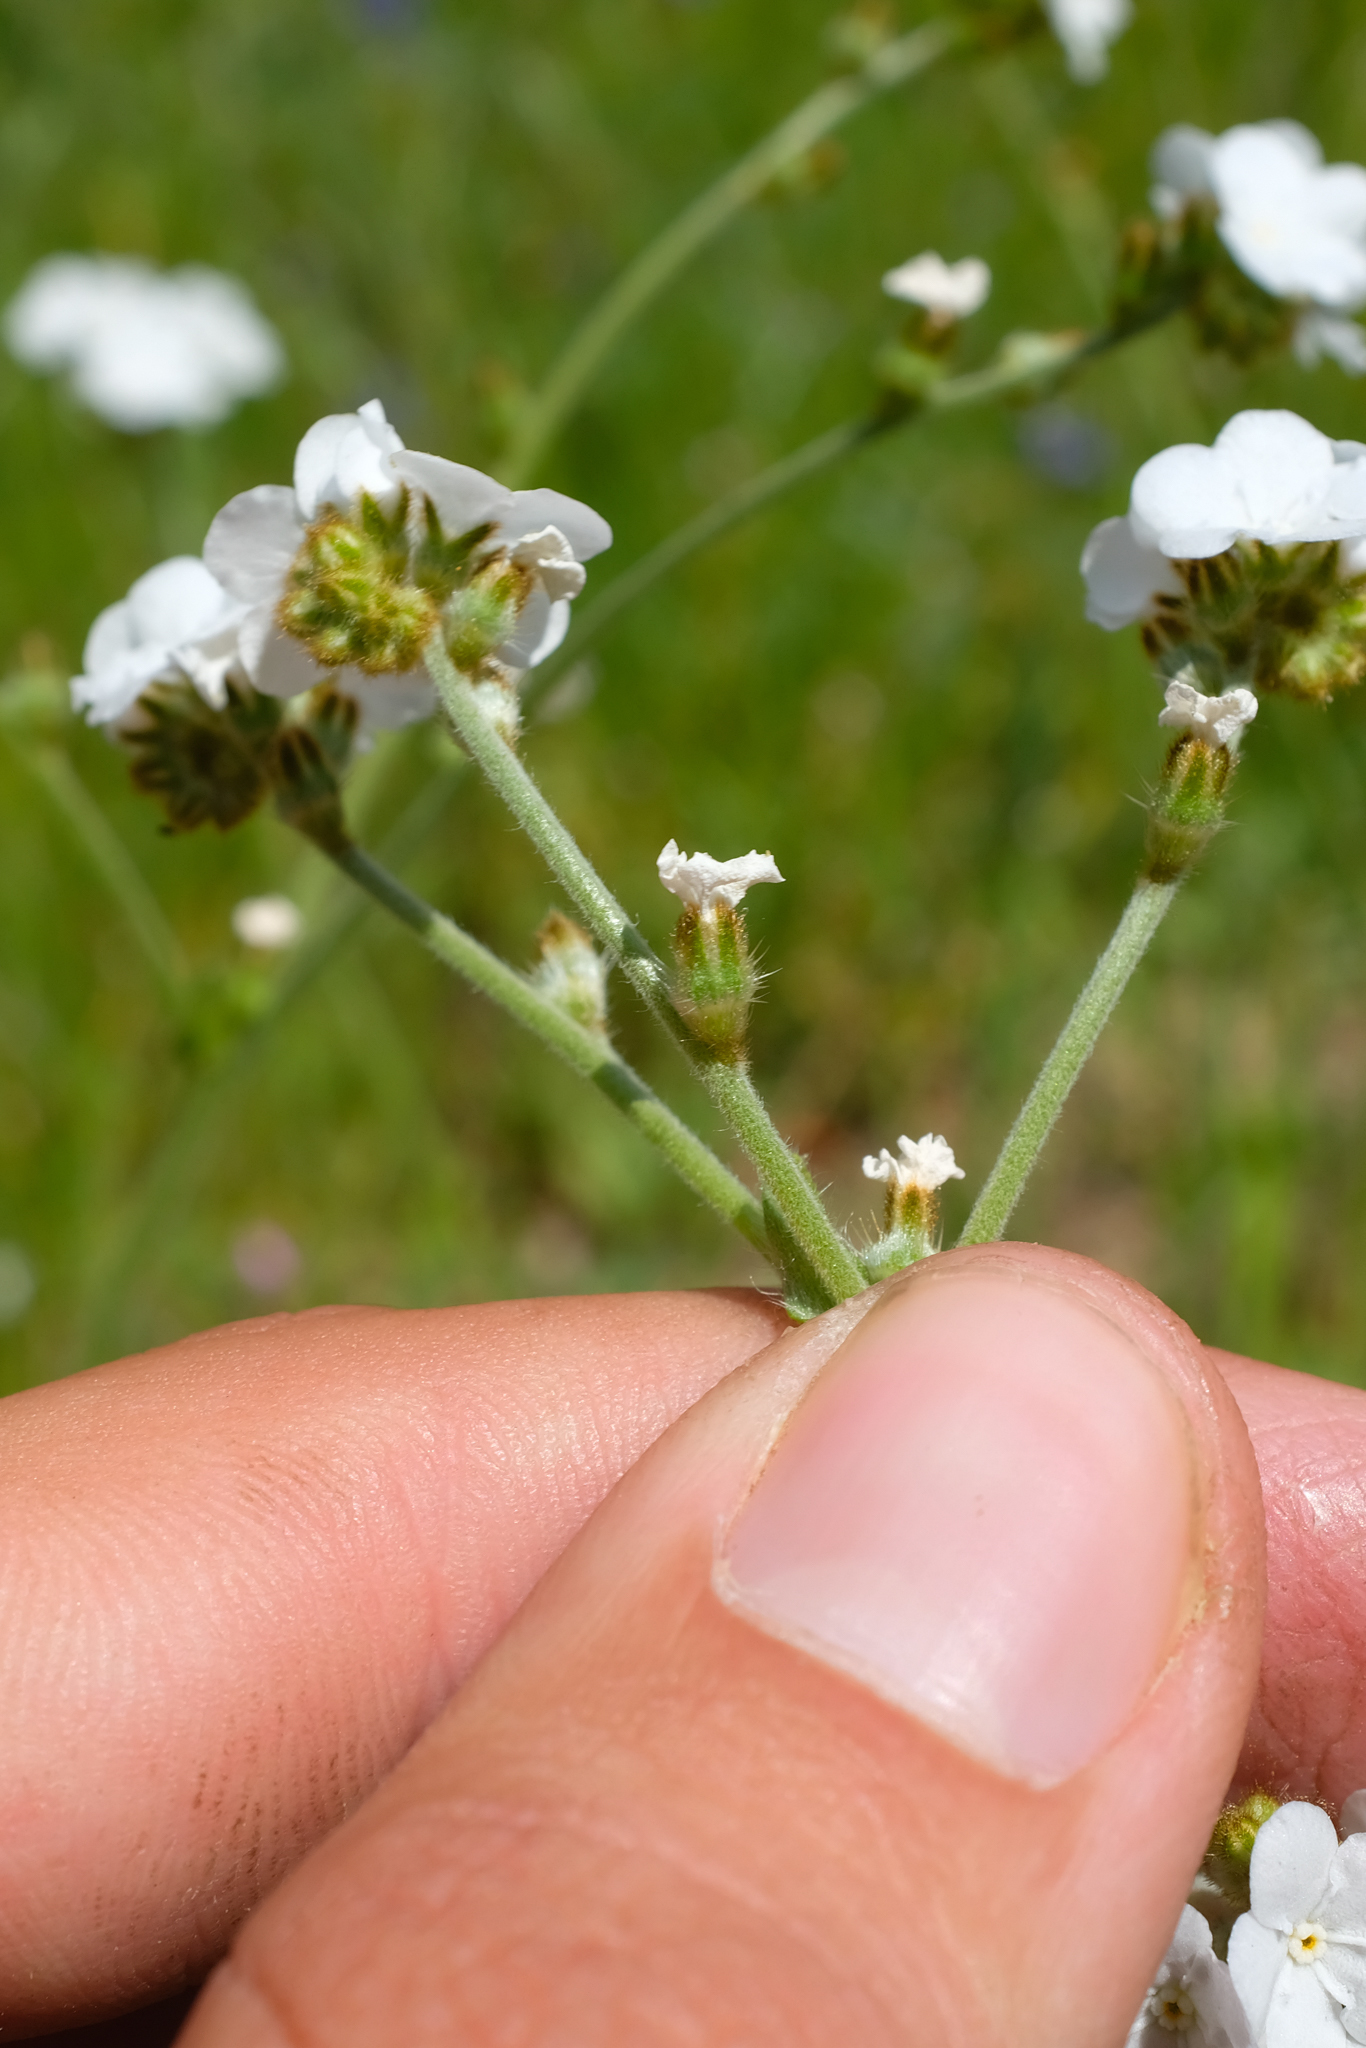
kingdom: Plantae
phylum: Tracheophyta
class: Magnoliopsida
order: Boraginales
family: Boraginaceae
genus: Plagiobothrys
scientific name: Plagiobothrys nothofulvus
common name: Popcorn-flower
